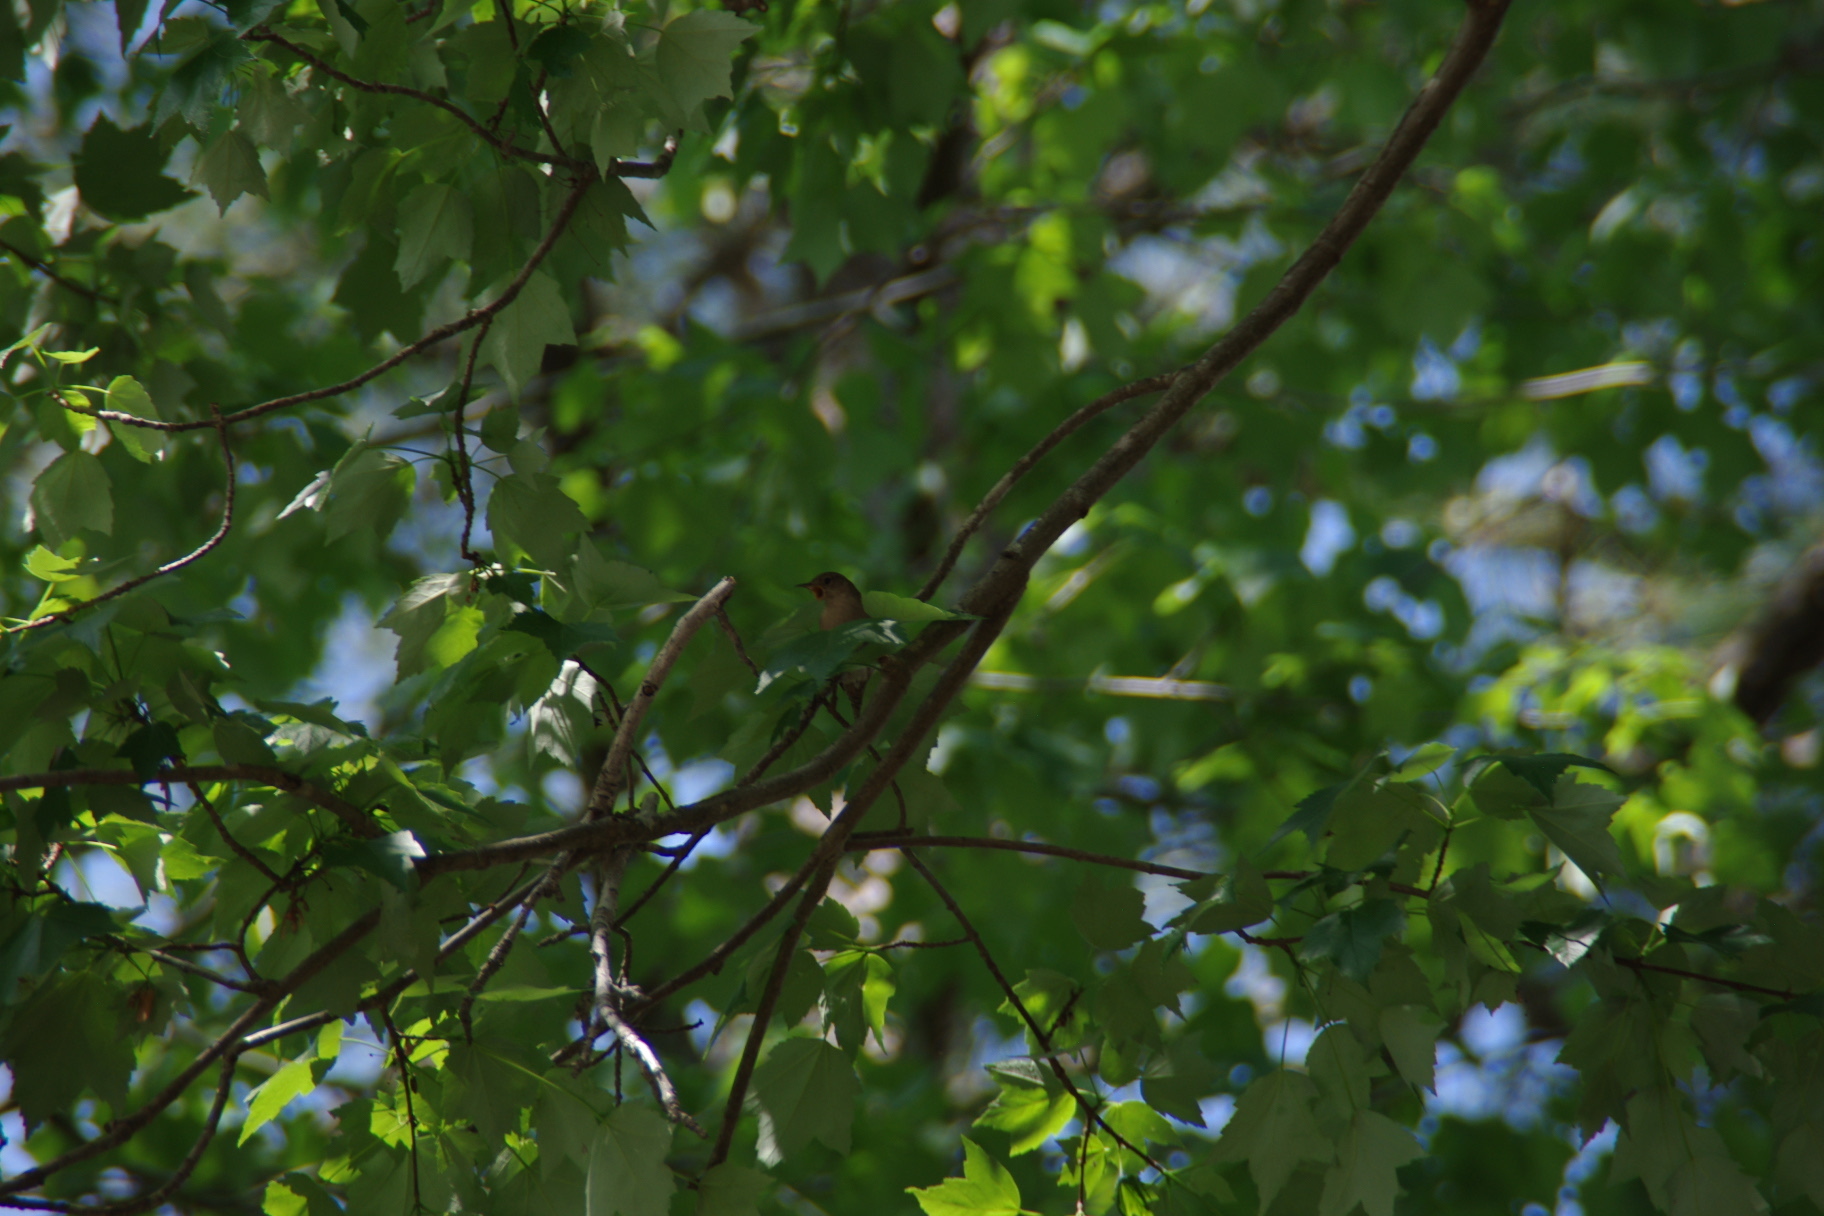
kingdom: Animalia
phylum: Chordata
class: Aves
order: Passeriformes
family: Troglodytidae
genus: Troglodytes
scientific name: Troglodytes aedon
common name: House wren
